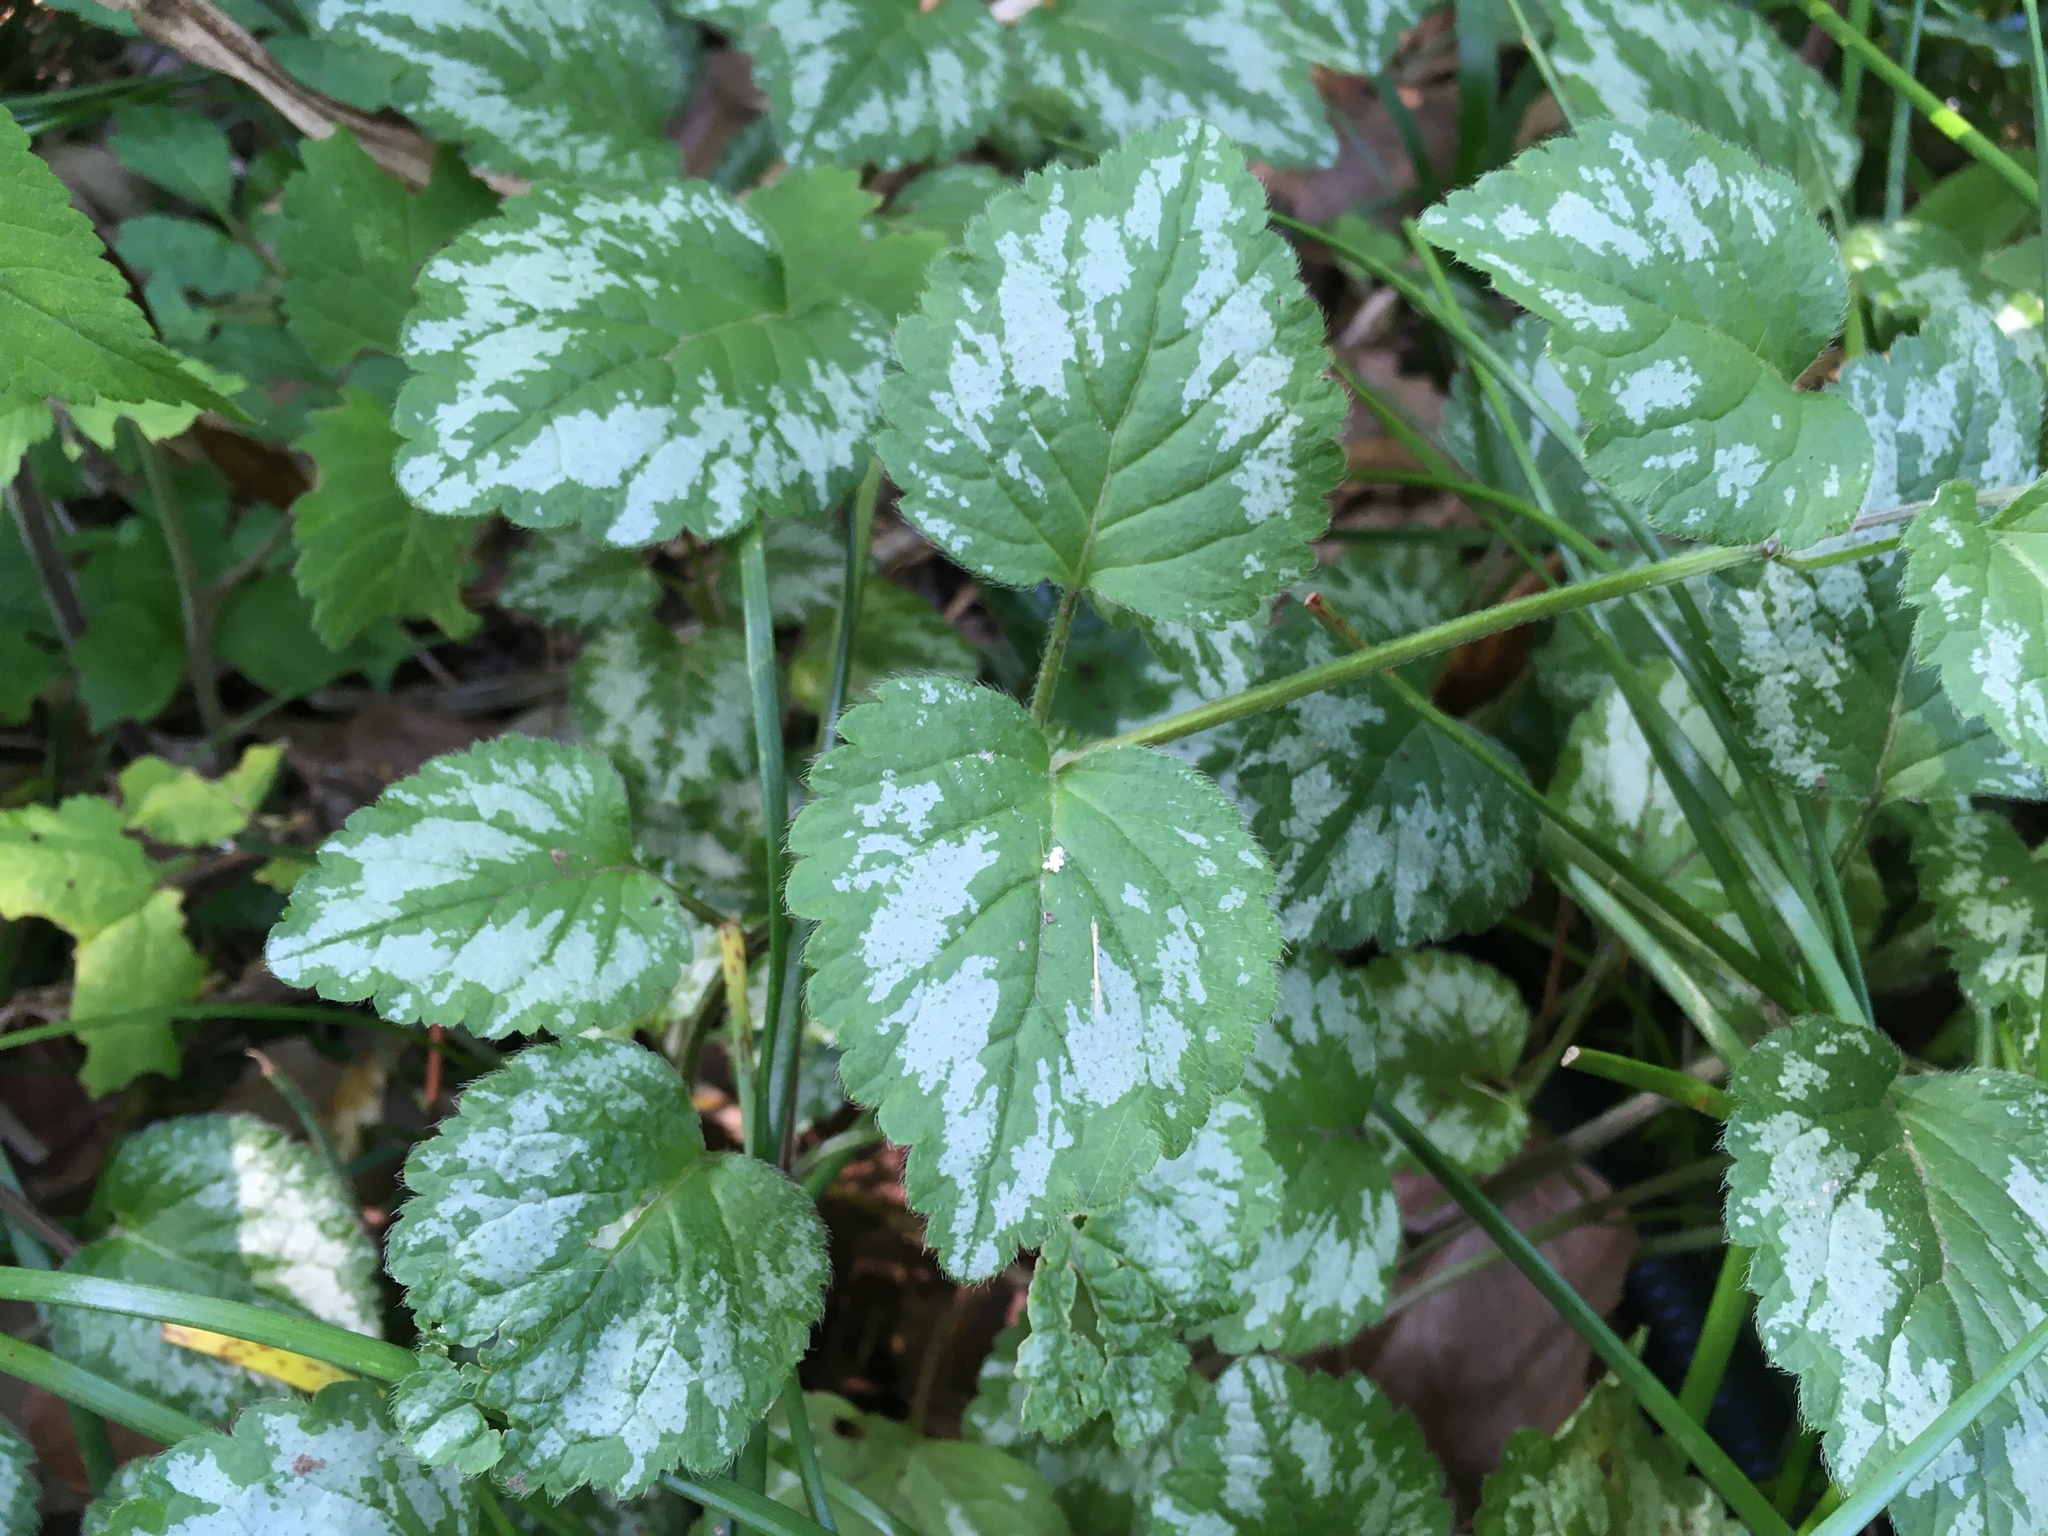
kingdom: Plantae
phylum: Tracheophyta
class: Magnoliopsida
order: Lamiales
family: Lamiaceae
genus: Lamium
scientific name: Lamium galeobdolon
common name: Yellow archangel
